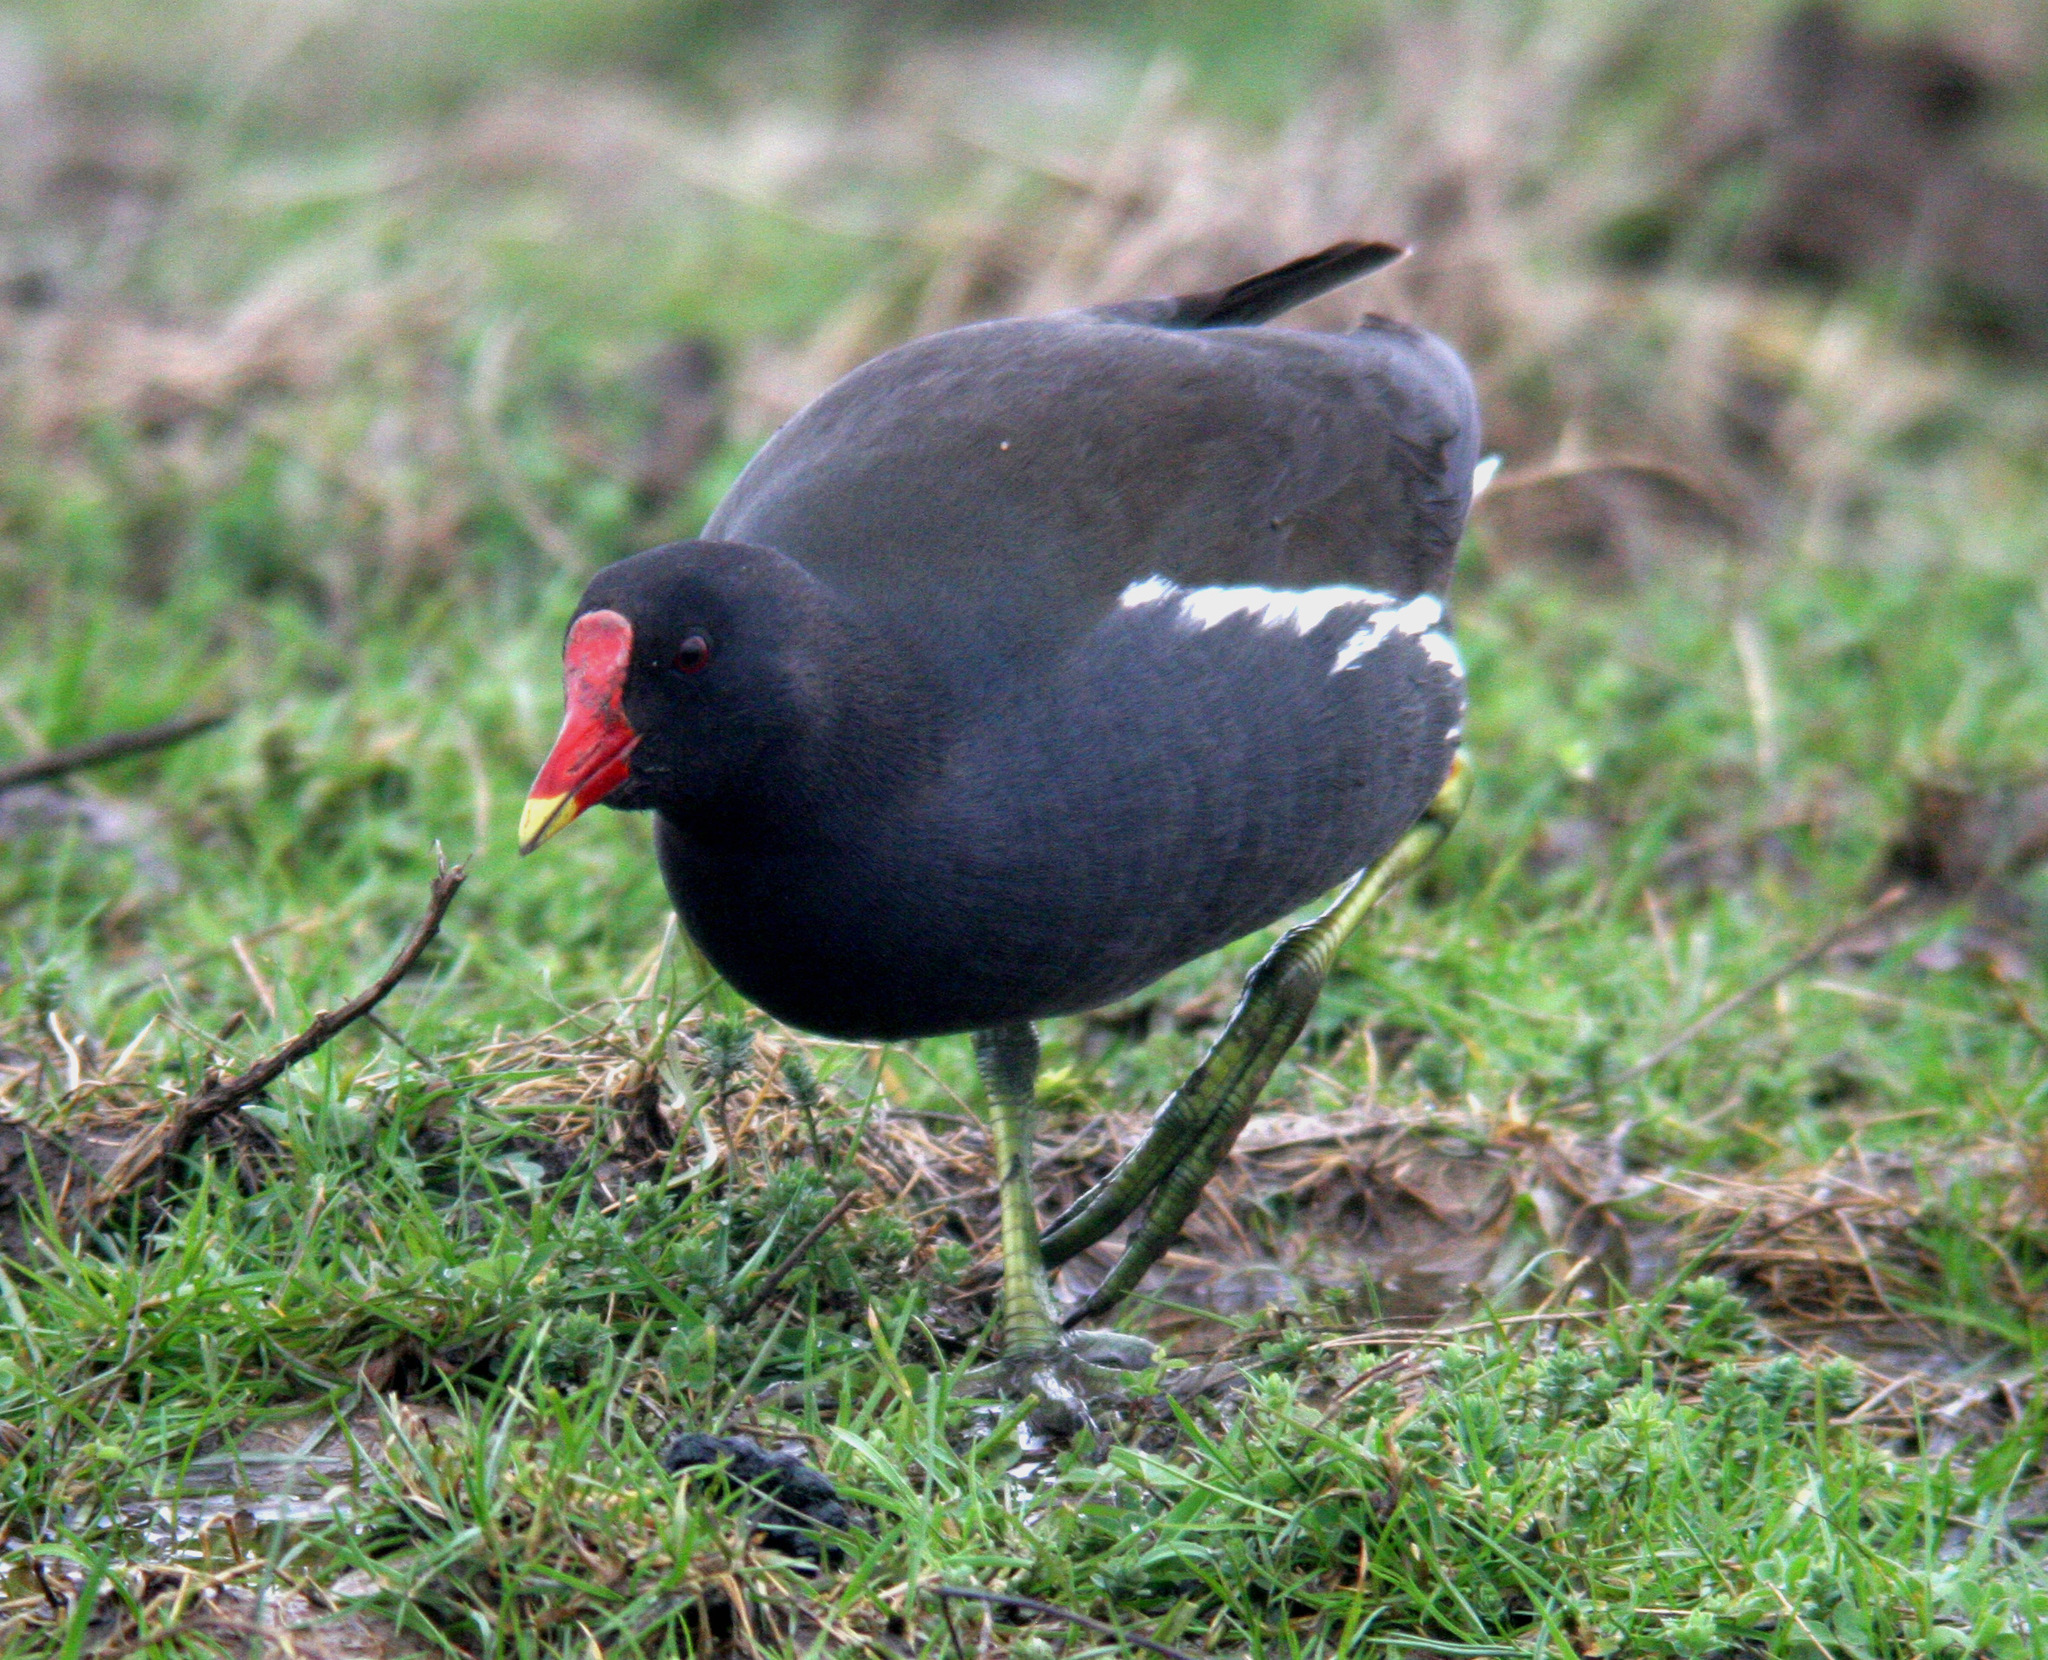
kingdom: Animalia
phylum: Chordata
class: Aves
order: Gruiformes
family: Rallidae
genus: Gallinula
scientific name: Gallinula chloropus
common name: Common moorhen
